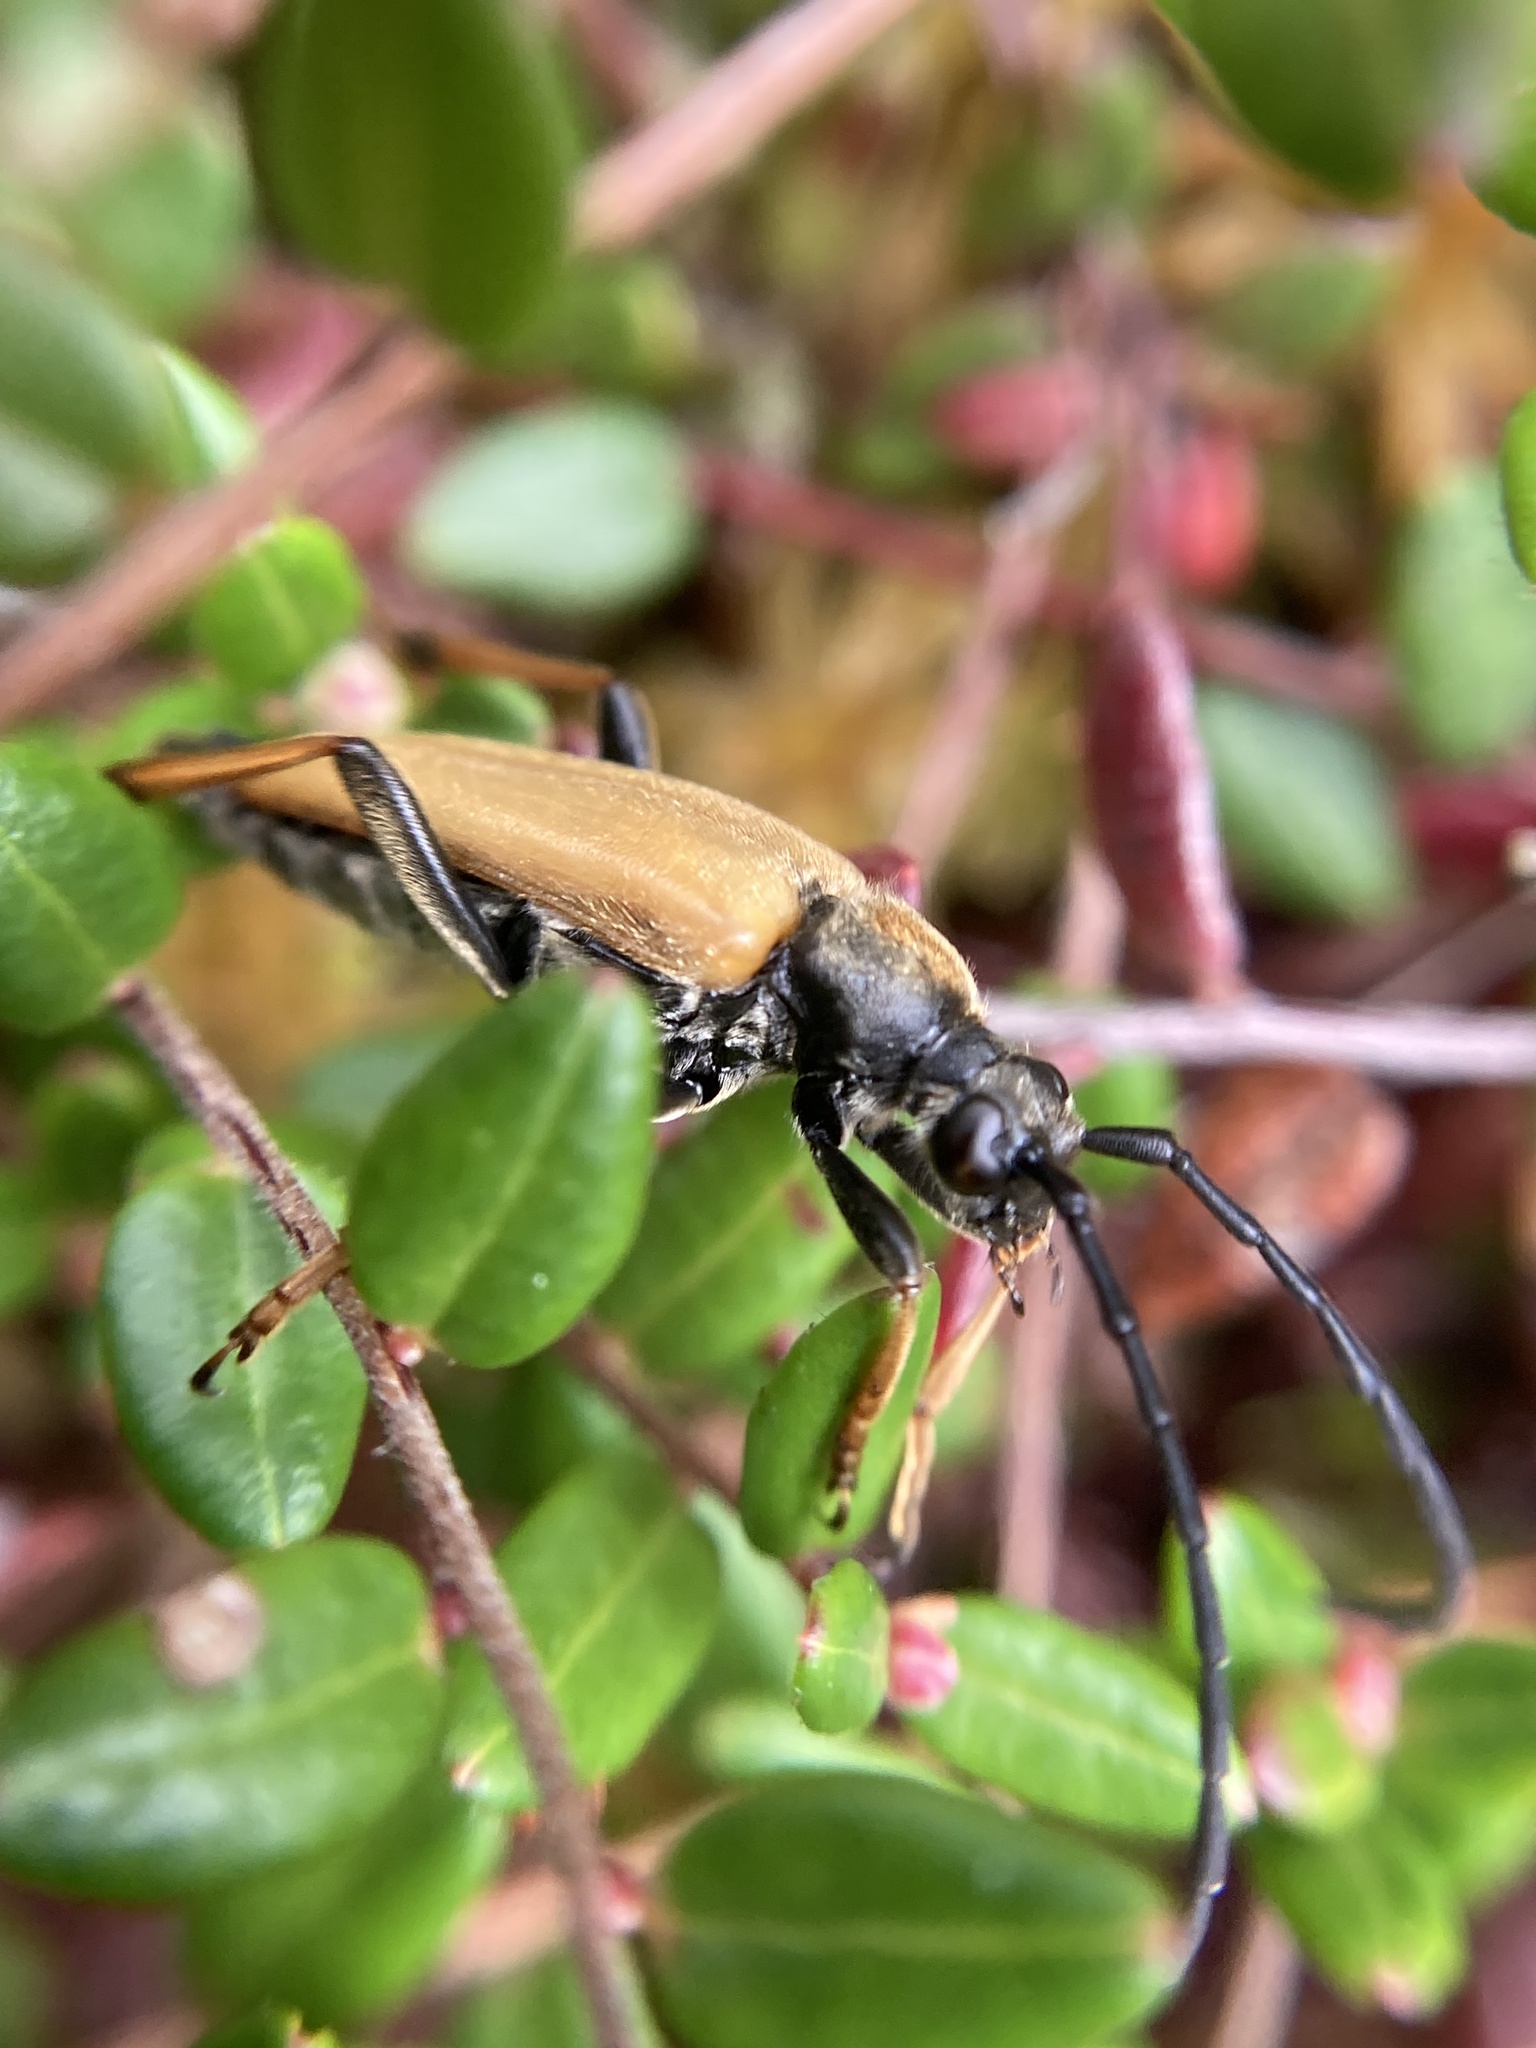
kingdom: Animalia
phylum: Arthropoda
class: Insecta
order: Coleoptera
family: Cerambycidae
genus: Stictoleptura
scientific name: Stictoleptura rubra
